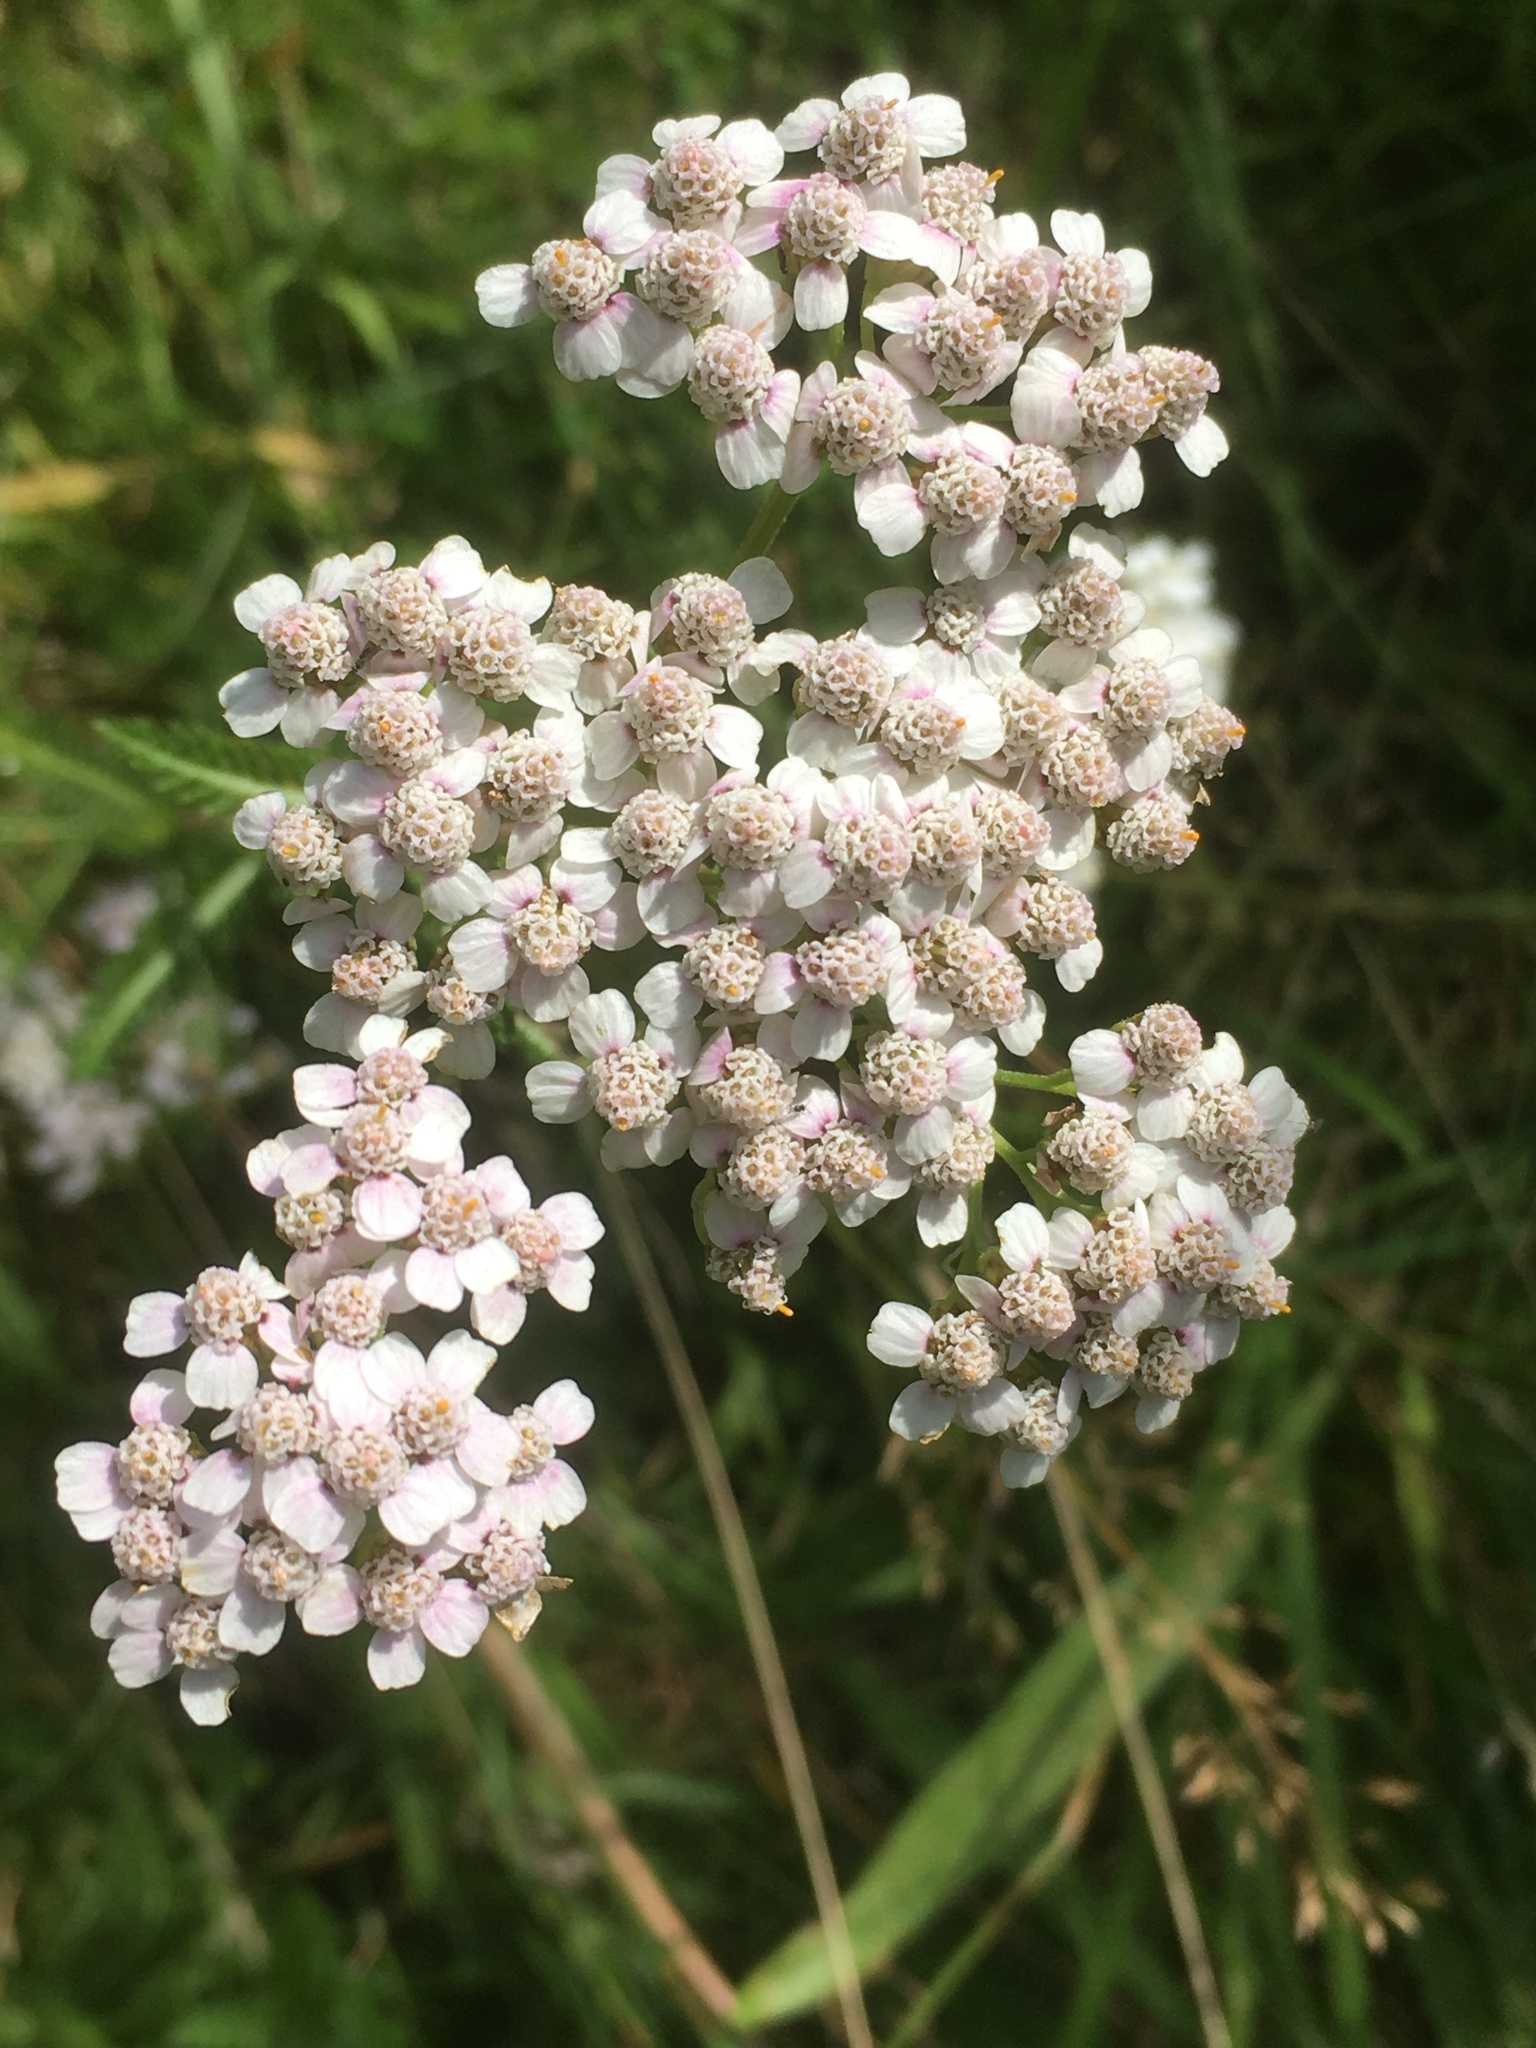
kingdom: Plantae
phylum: Tracheophyta
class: Magnoliopsida
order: Asterales
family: Asteraceae
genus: Achillea
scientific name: Achillea millefolium
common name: Yarrow
